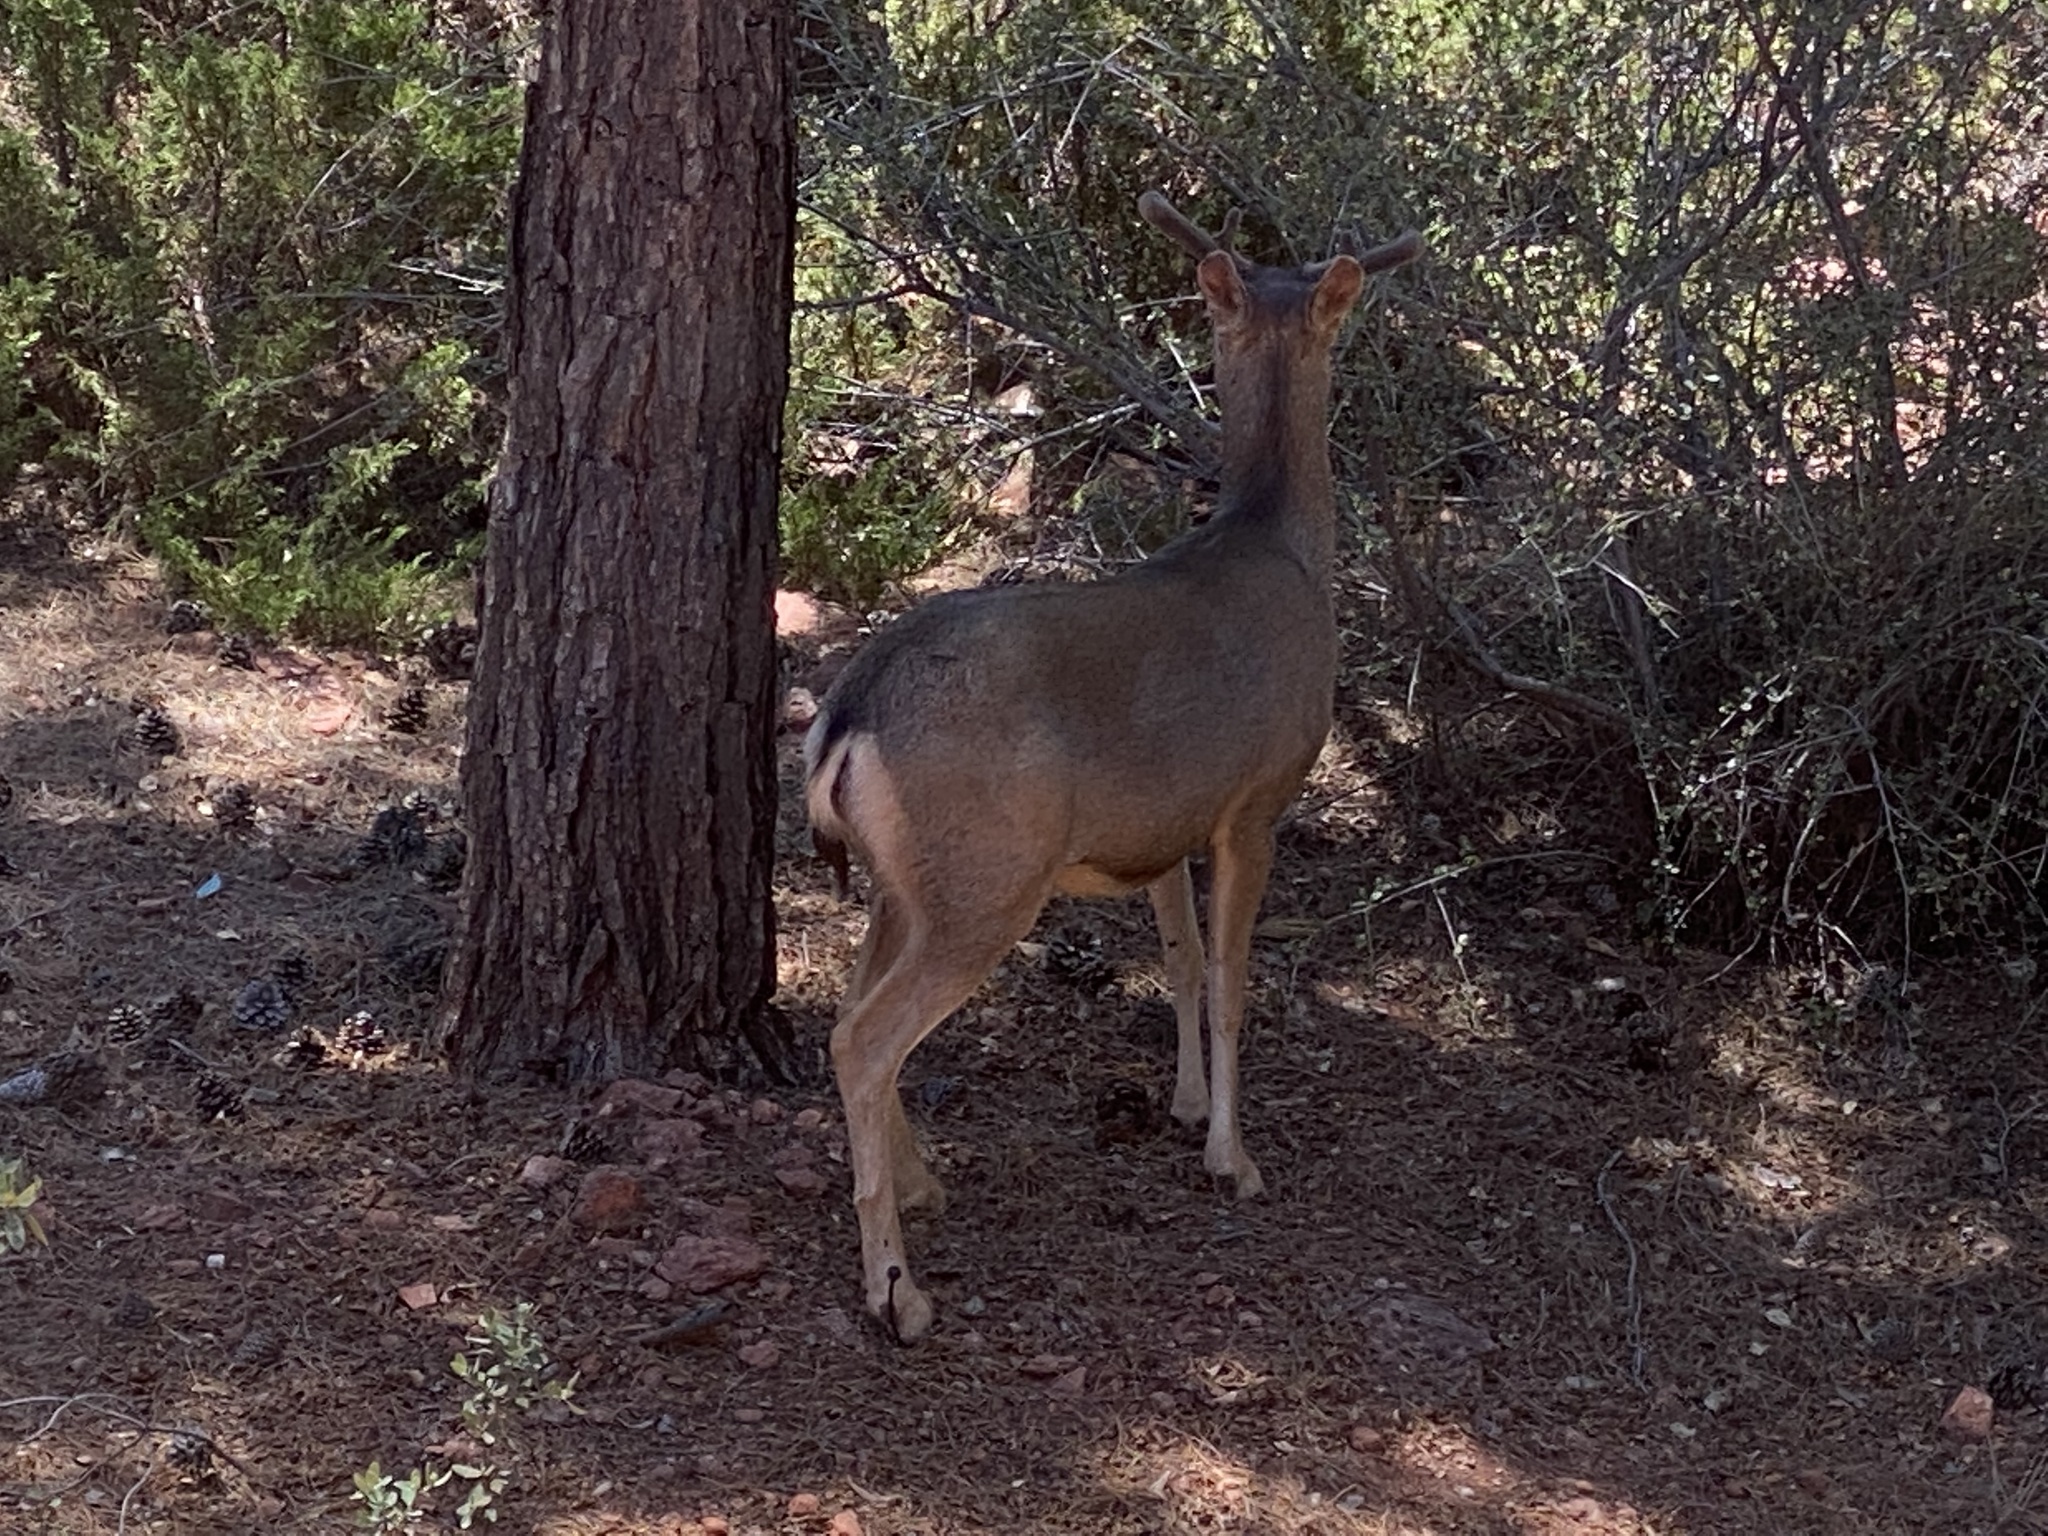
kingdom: Animalia
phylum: Chordata
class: Mammalia
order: Artiodactyla
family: Cervidae
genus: Odocoileus
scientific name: Odocoileus hemionus
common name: Mule deer
